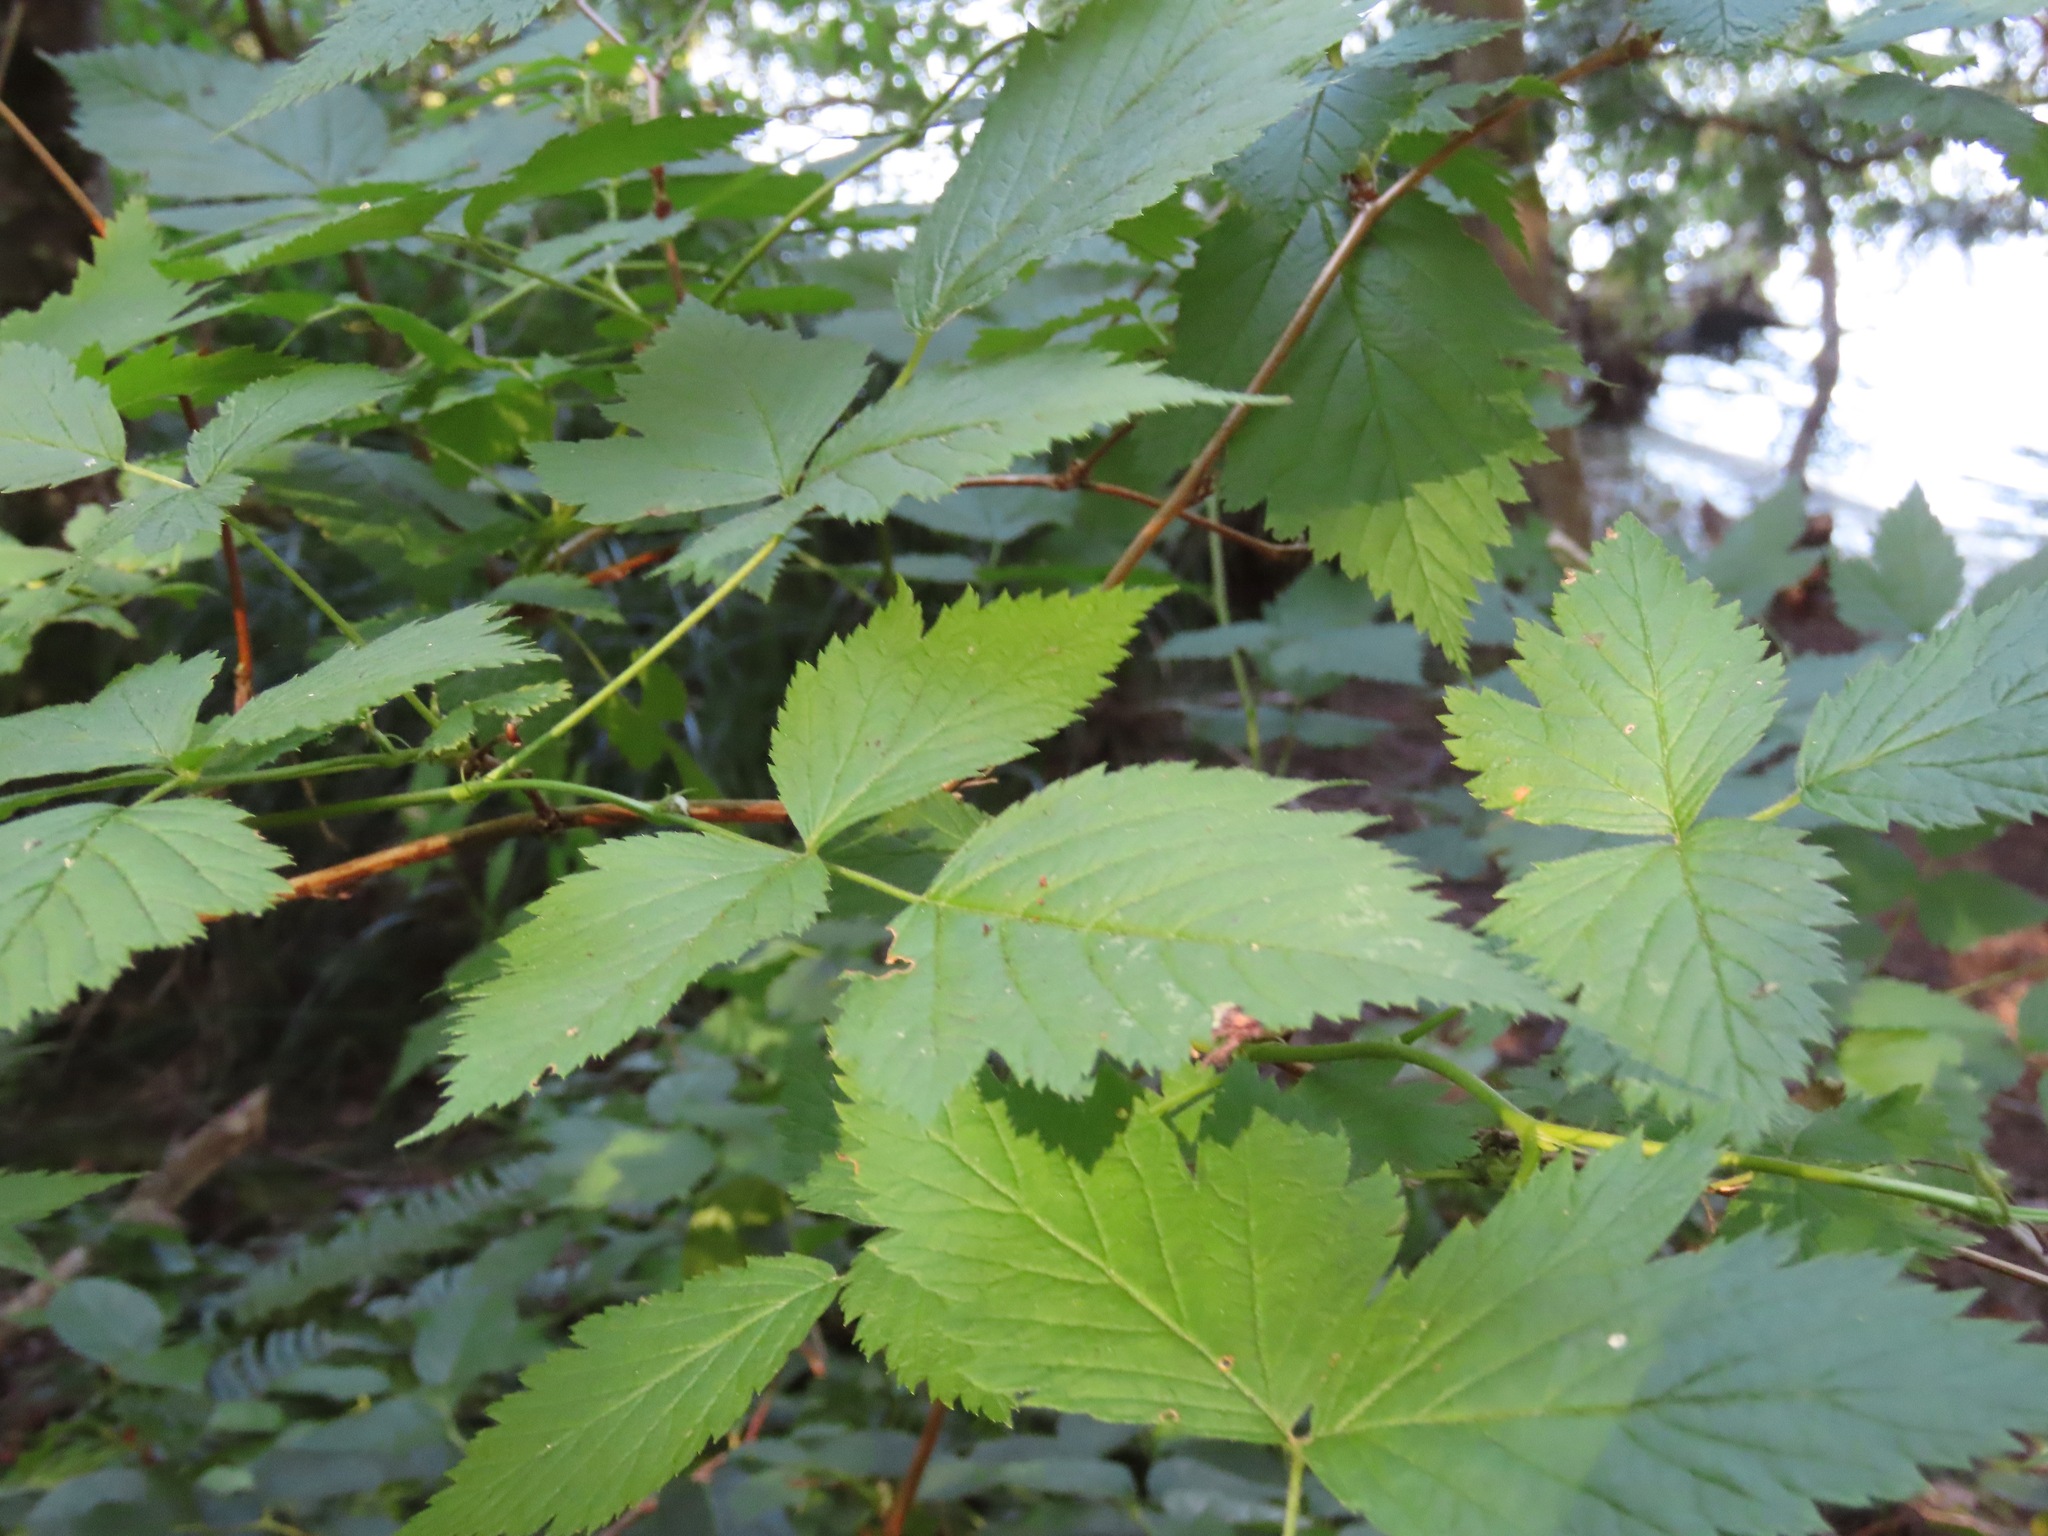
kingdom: Plantae
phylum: Tracheophyta
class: Magnoliopsida
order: Rosales
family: Rosaceae
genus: Rubus
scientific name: Rubus spectabilis
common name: Salmonberry
